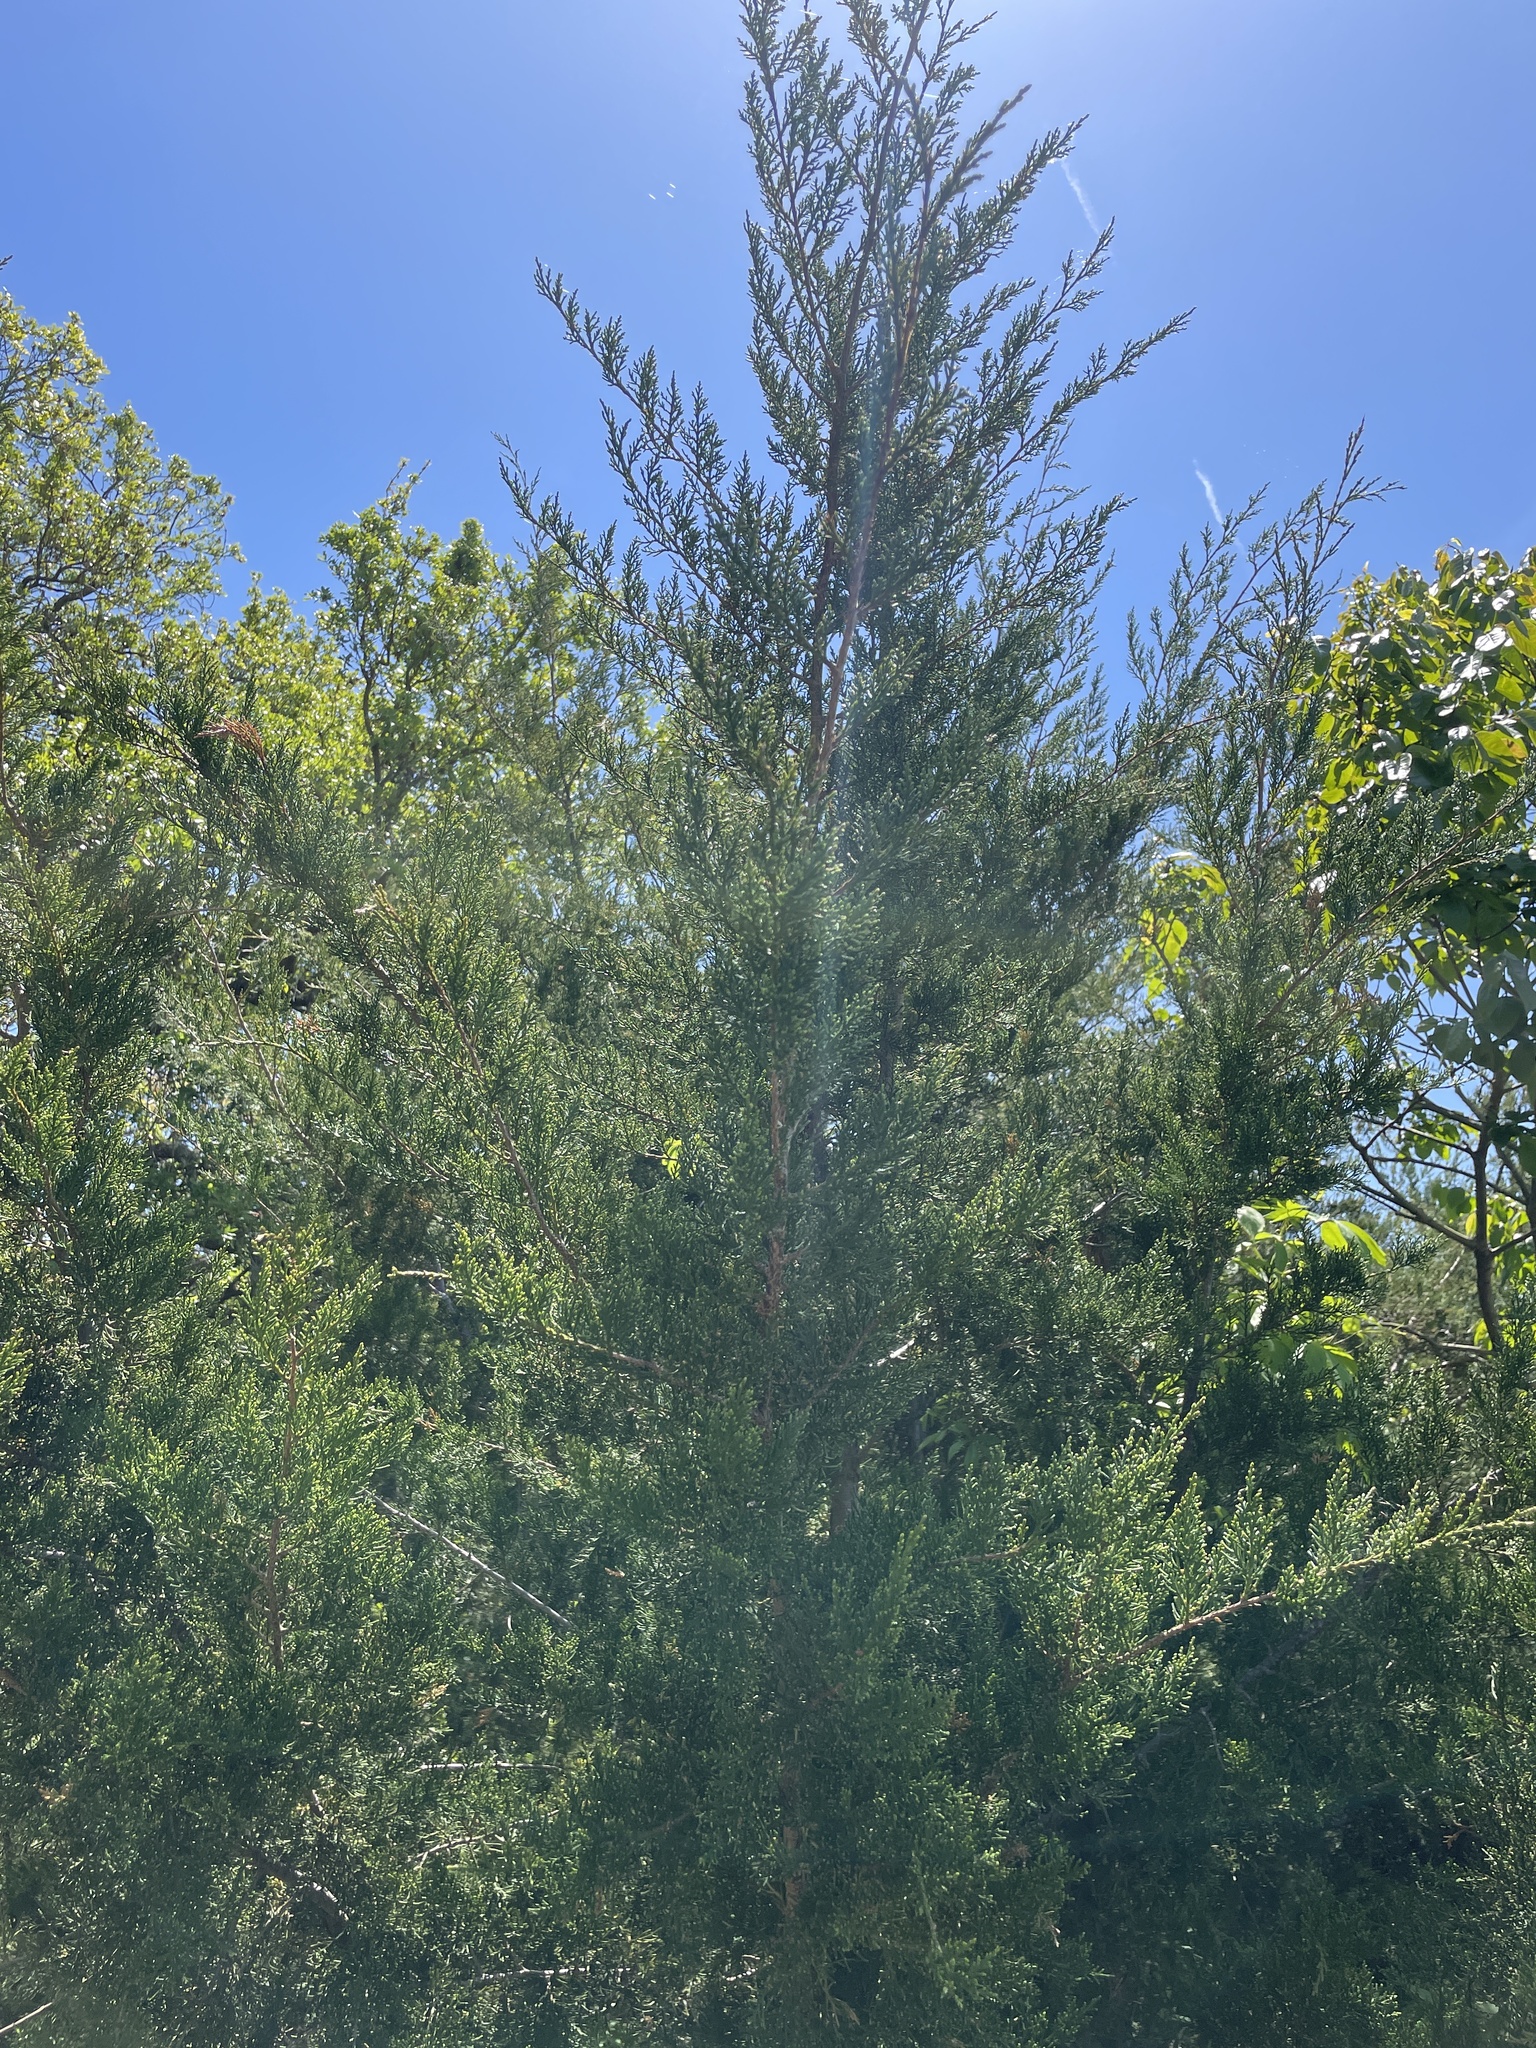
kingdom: Plantae
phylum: Tracheophyta
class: Pinopsida
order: Pinales
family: Cupressaceae
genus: Juniperus
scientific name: Juniperus virginiana
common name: Red juniper
